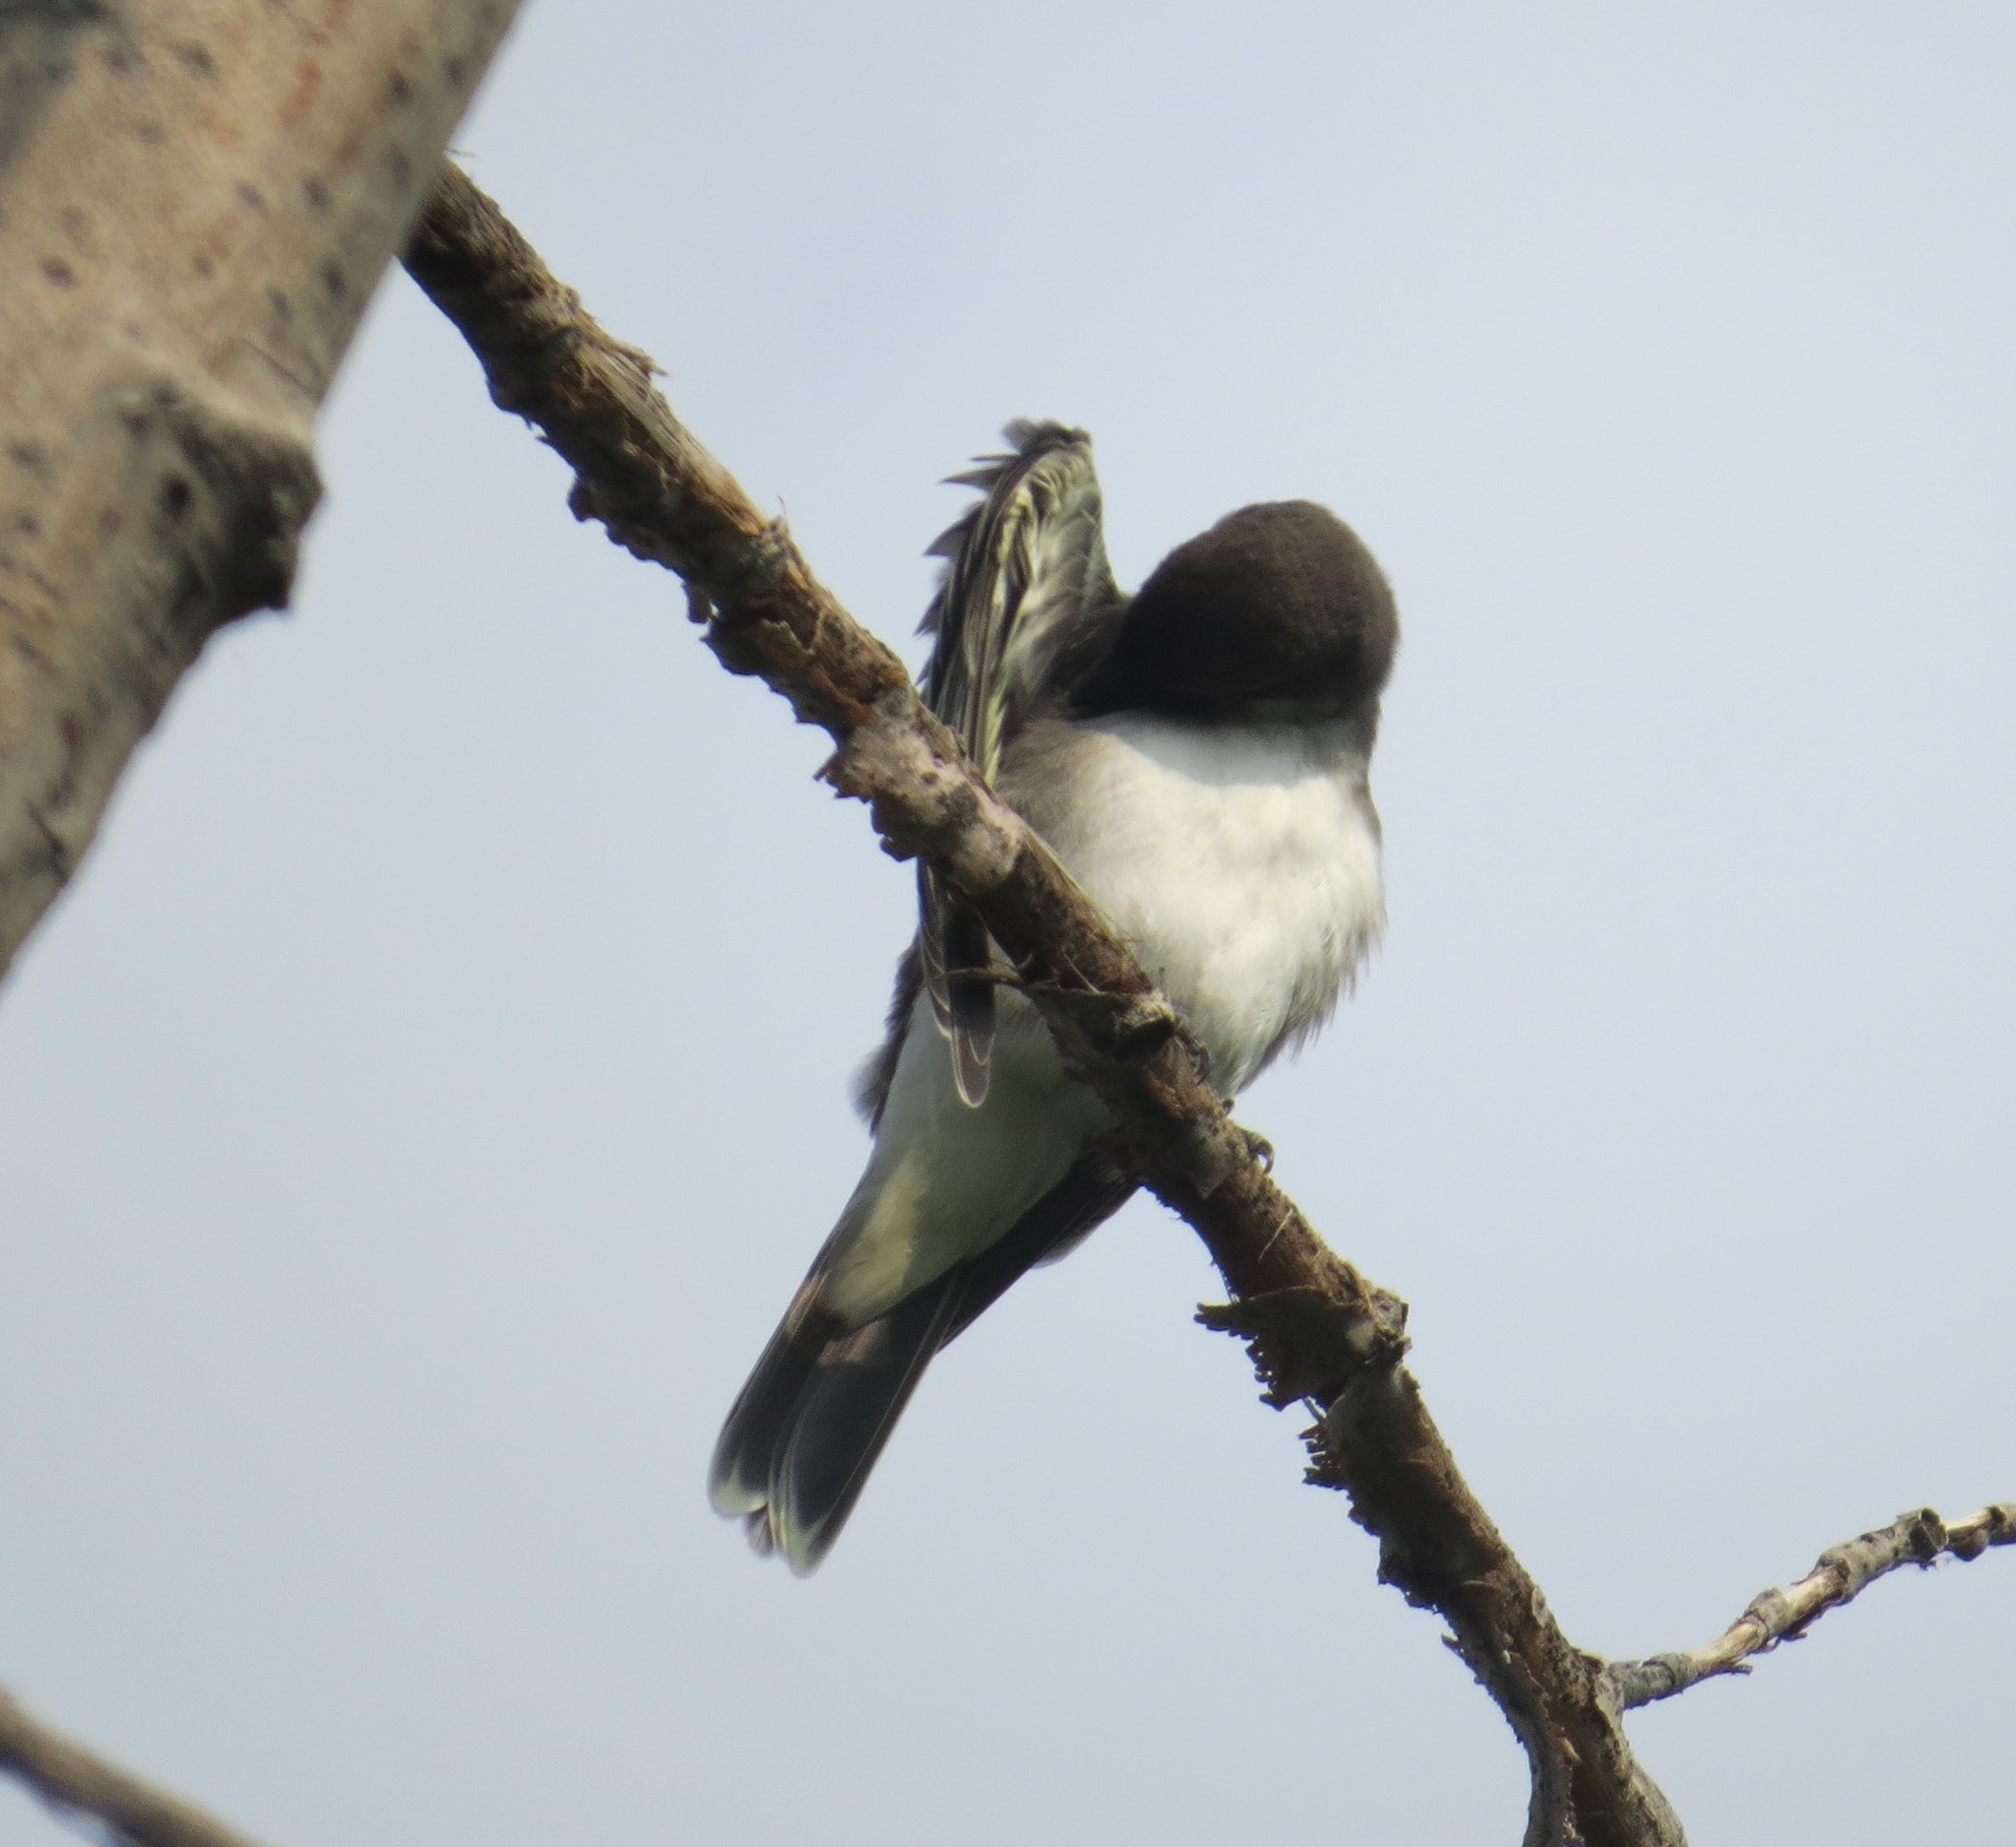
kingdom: Animalia
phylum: Chordata
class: Aves
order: Passeriformes
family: Tyrannidae
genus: Tyrannus
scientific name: Tyrannus tyrannus
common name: Eastern kingbird
